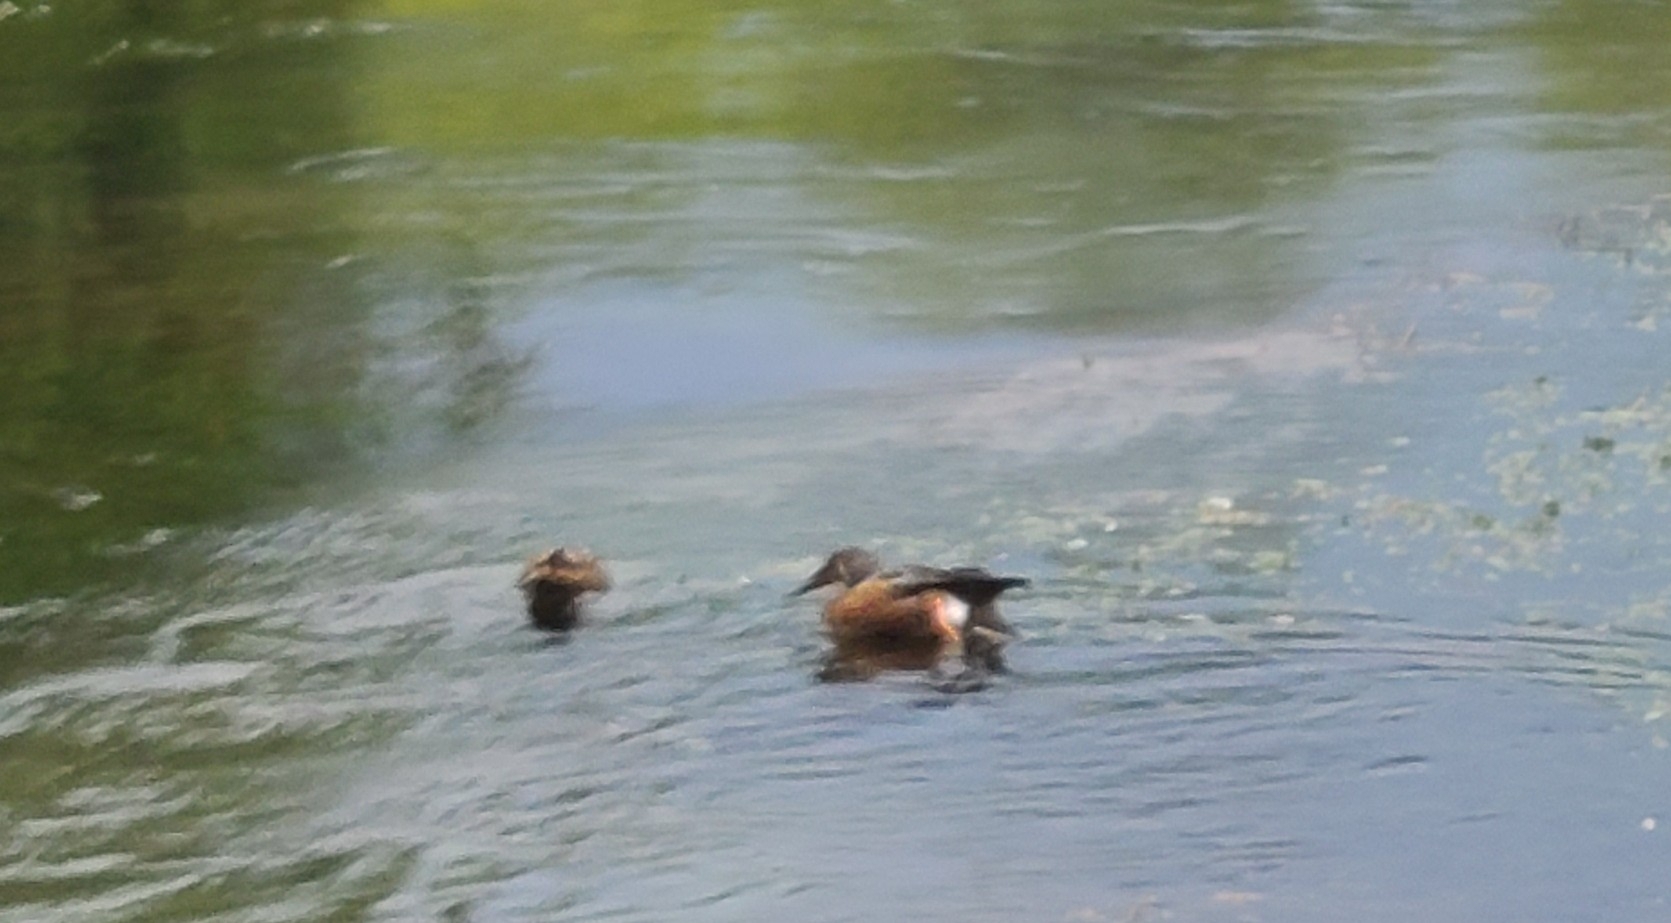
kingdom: Animalia
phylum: Chordata
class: Aves
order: Anseriformes
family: Anatidae
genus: Spatula
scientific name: Spatula rhynchotis
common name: Australian shoveler
